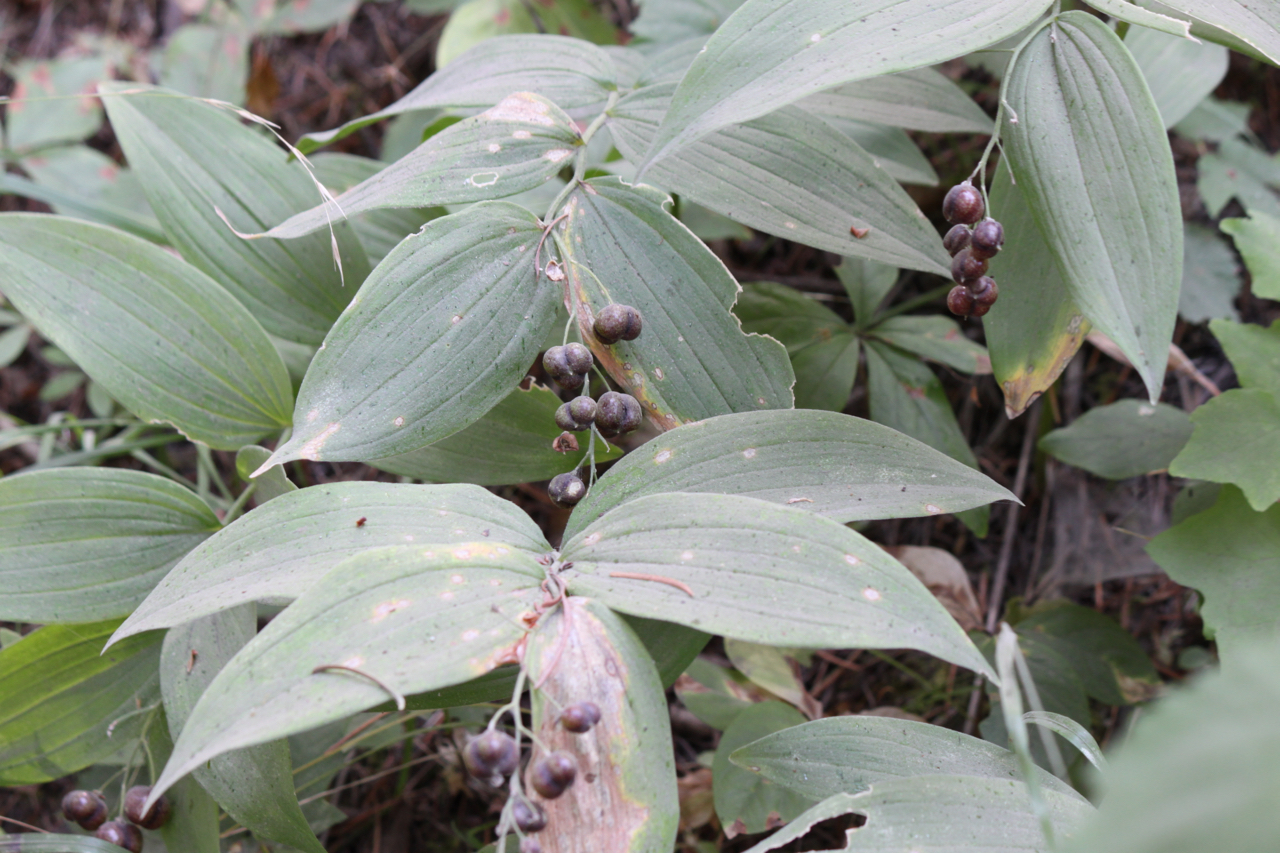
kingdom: Plantae
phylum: Tracheophyta
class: Liliopsida
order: Asparagales
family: Asparagaceae
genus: Maianthemum
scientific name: Maianthemum stellatum
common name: Little false solomon's seal
